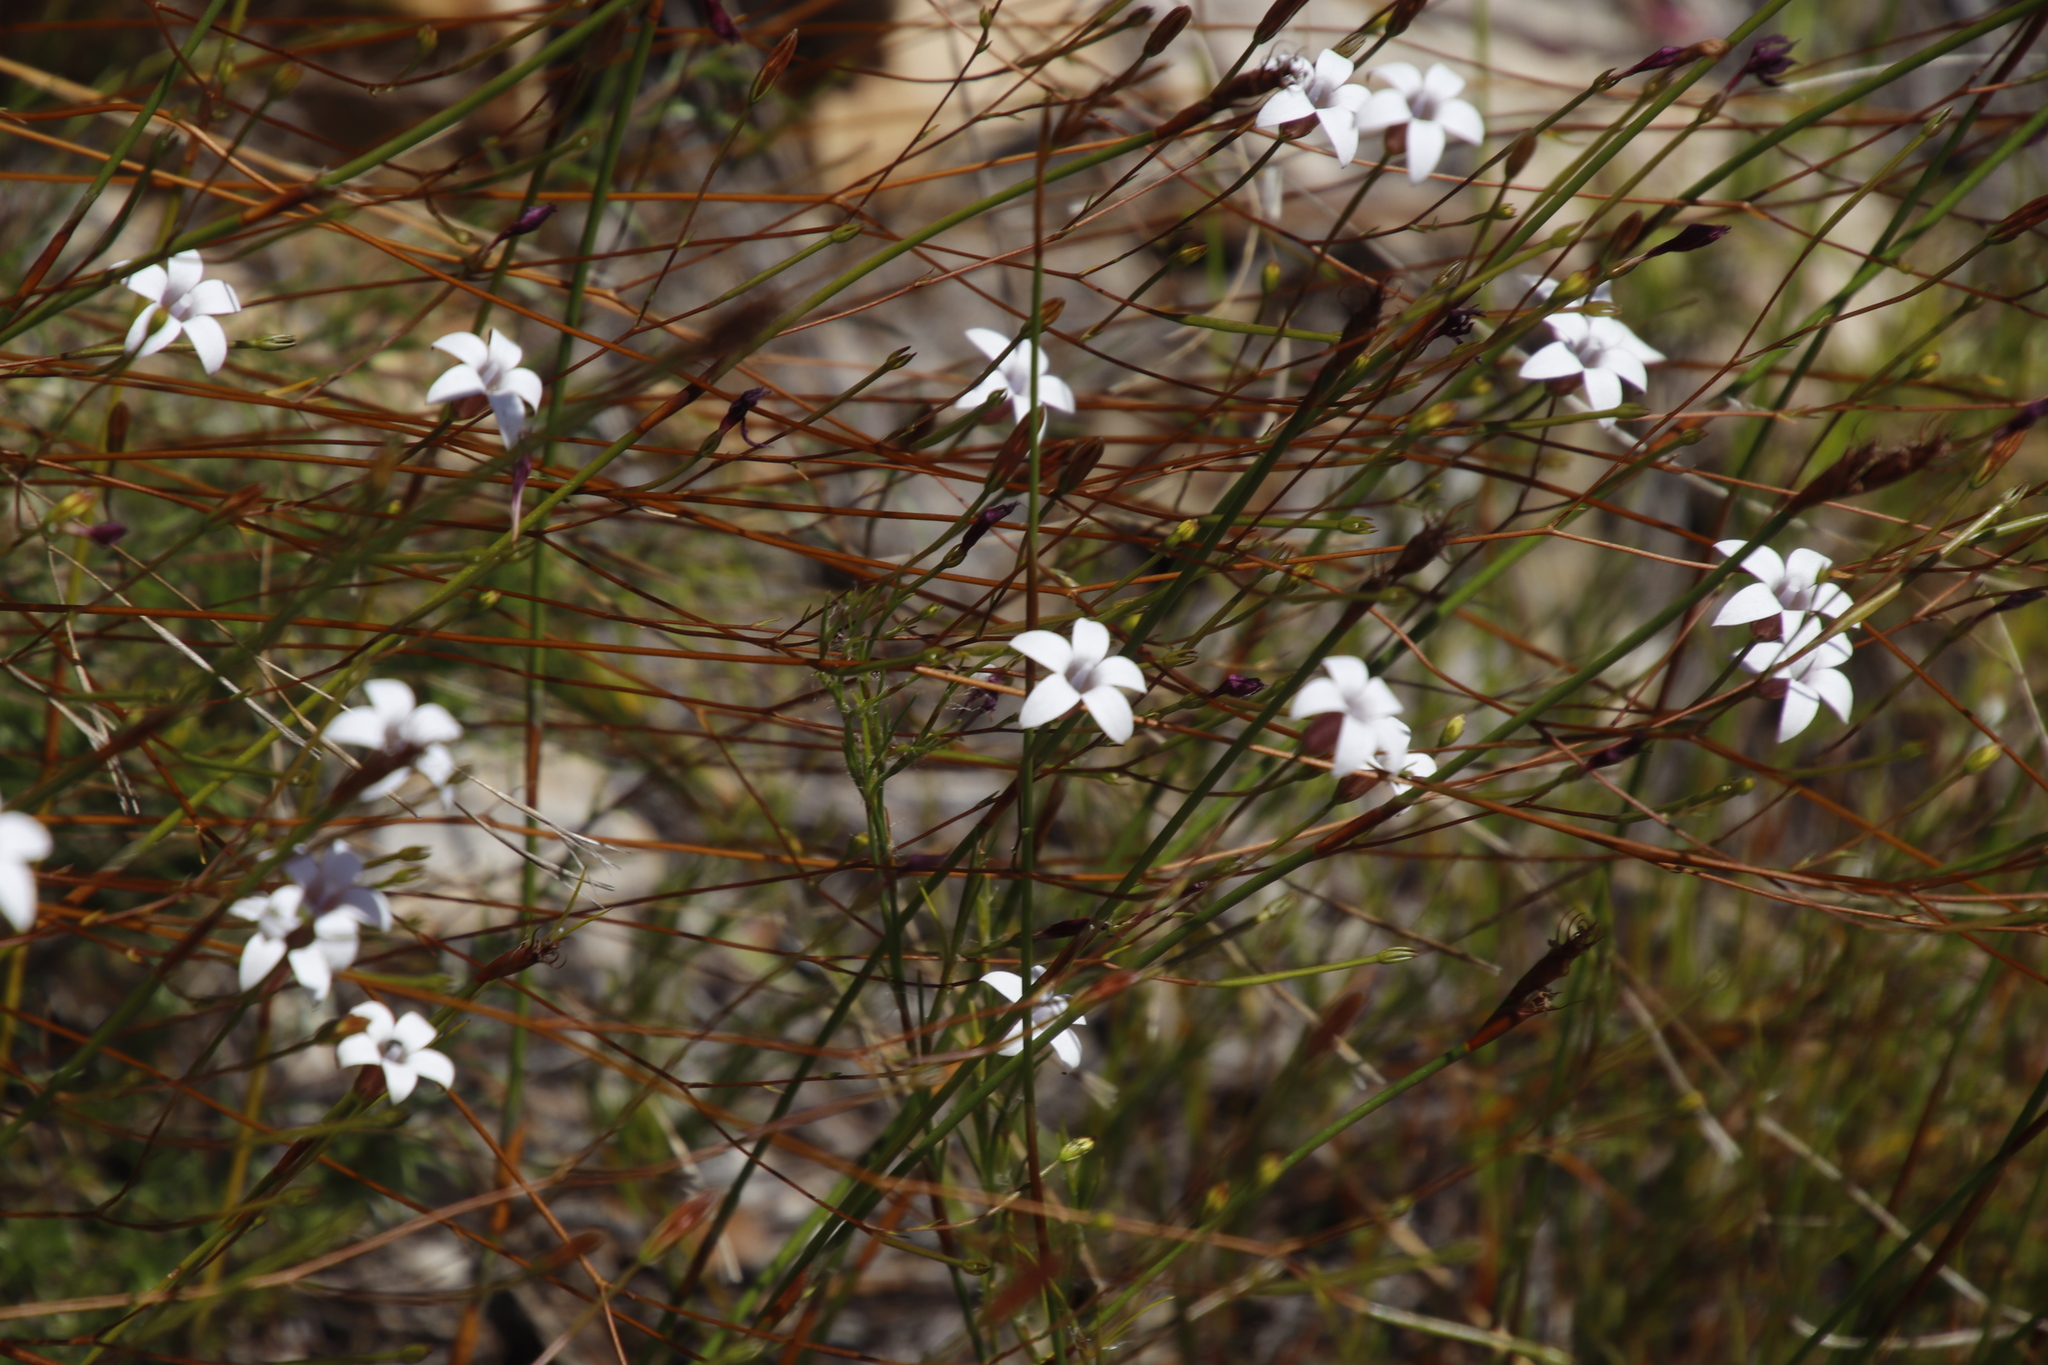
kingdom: Plantae
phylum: Tracheophyta
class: Magnoliopsida
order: Asterales
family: Campanulaceae
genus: Prismatocarpus
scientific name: Prismatocarpus fruticosus
